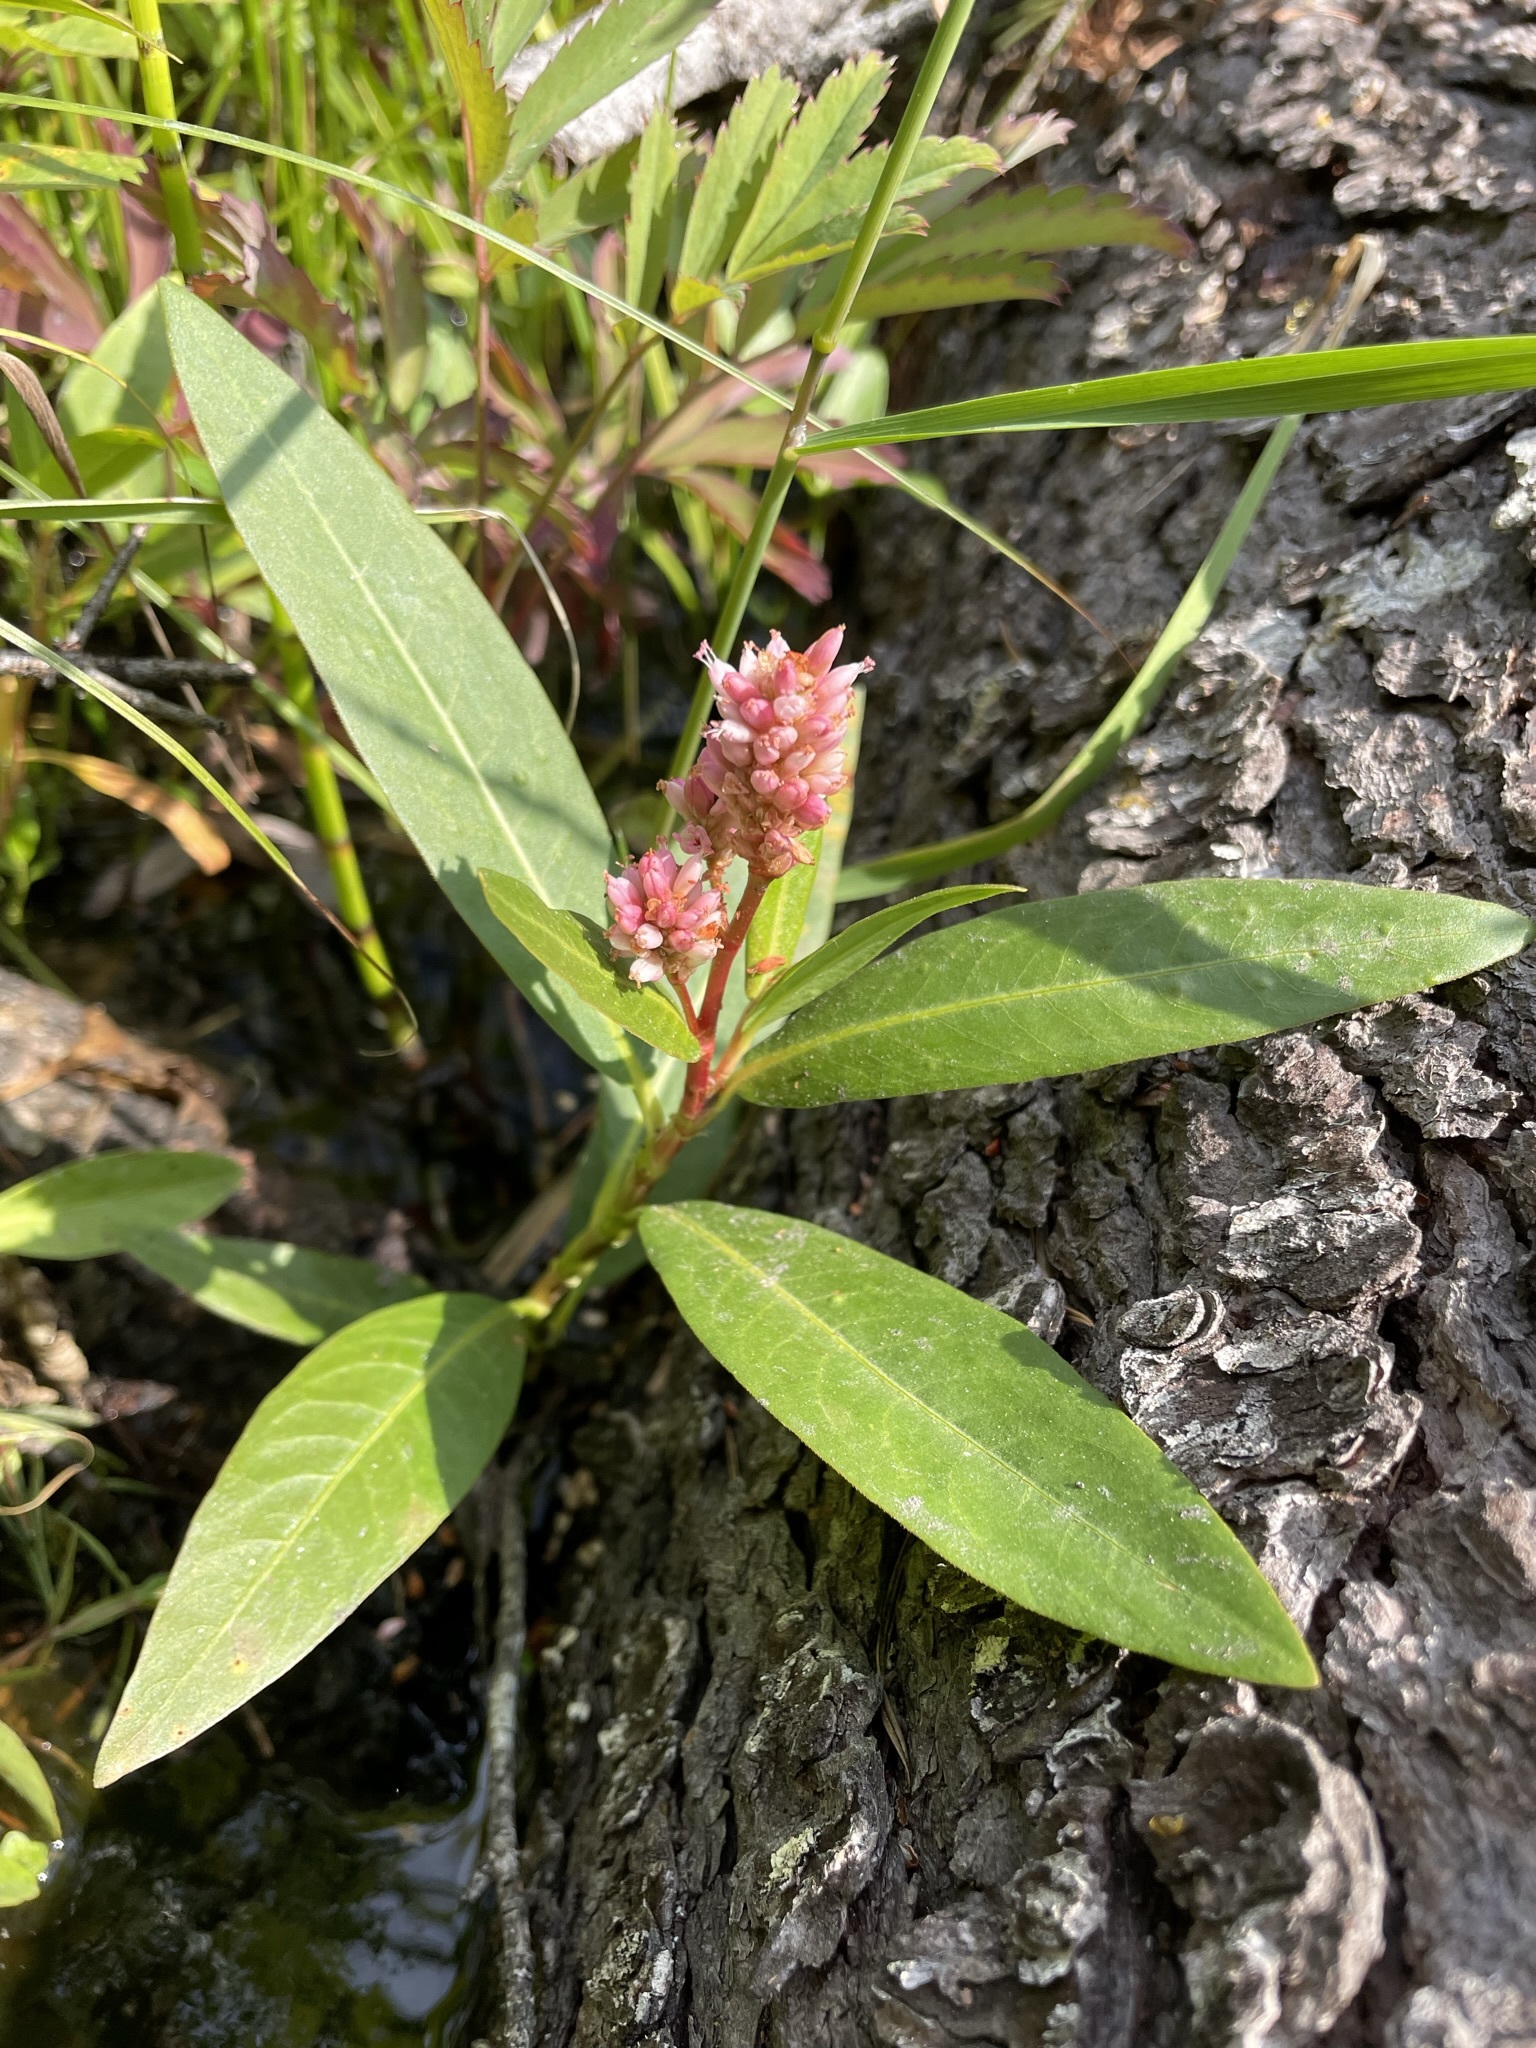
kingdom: Plantae
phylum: Tracheophyta
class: Magnoliopsida
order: Caryophyllales
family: Polygonaceae
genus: Persicaria
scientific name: Persicaria amphibia
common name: Amphibious bistort
